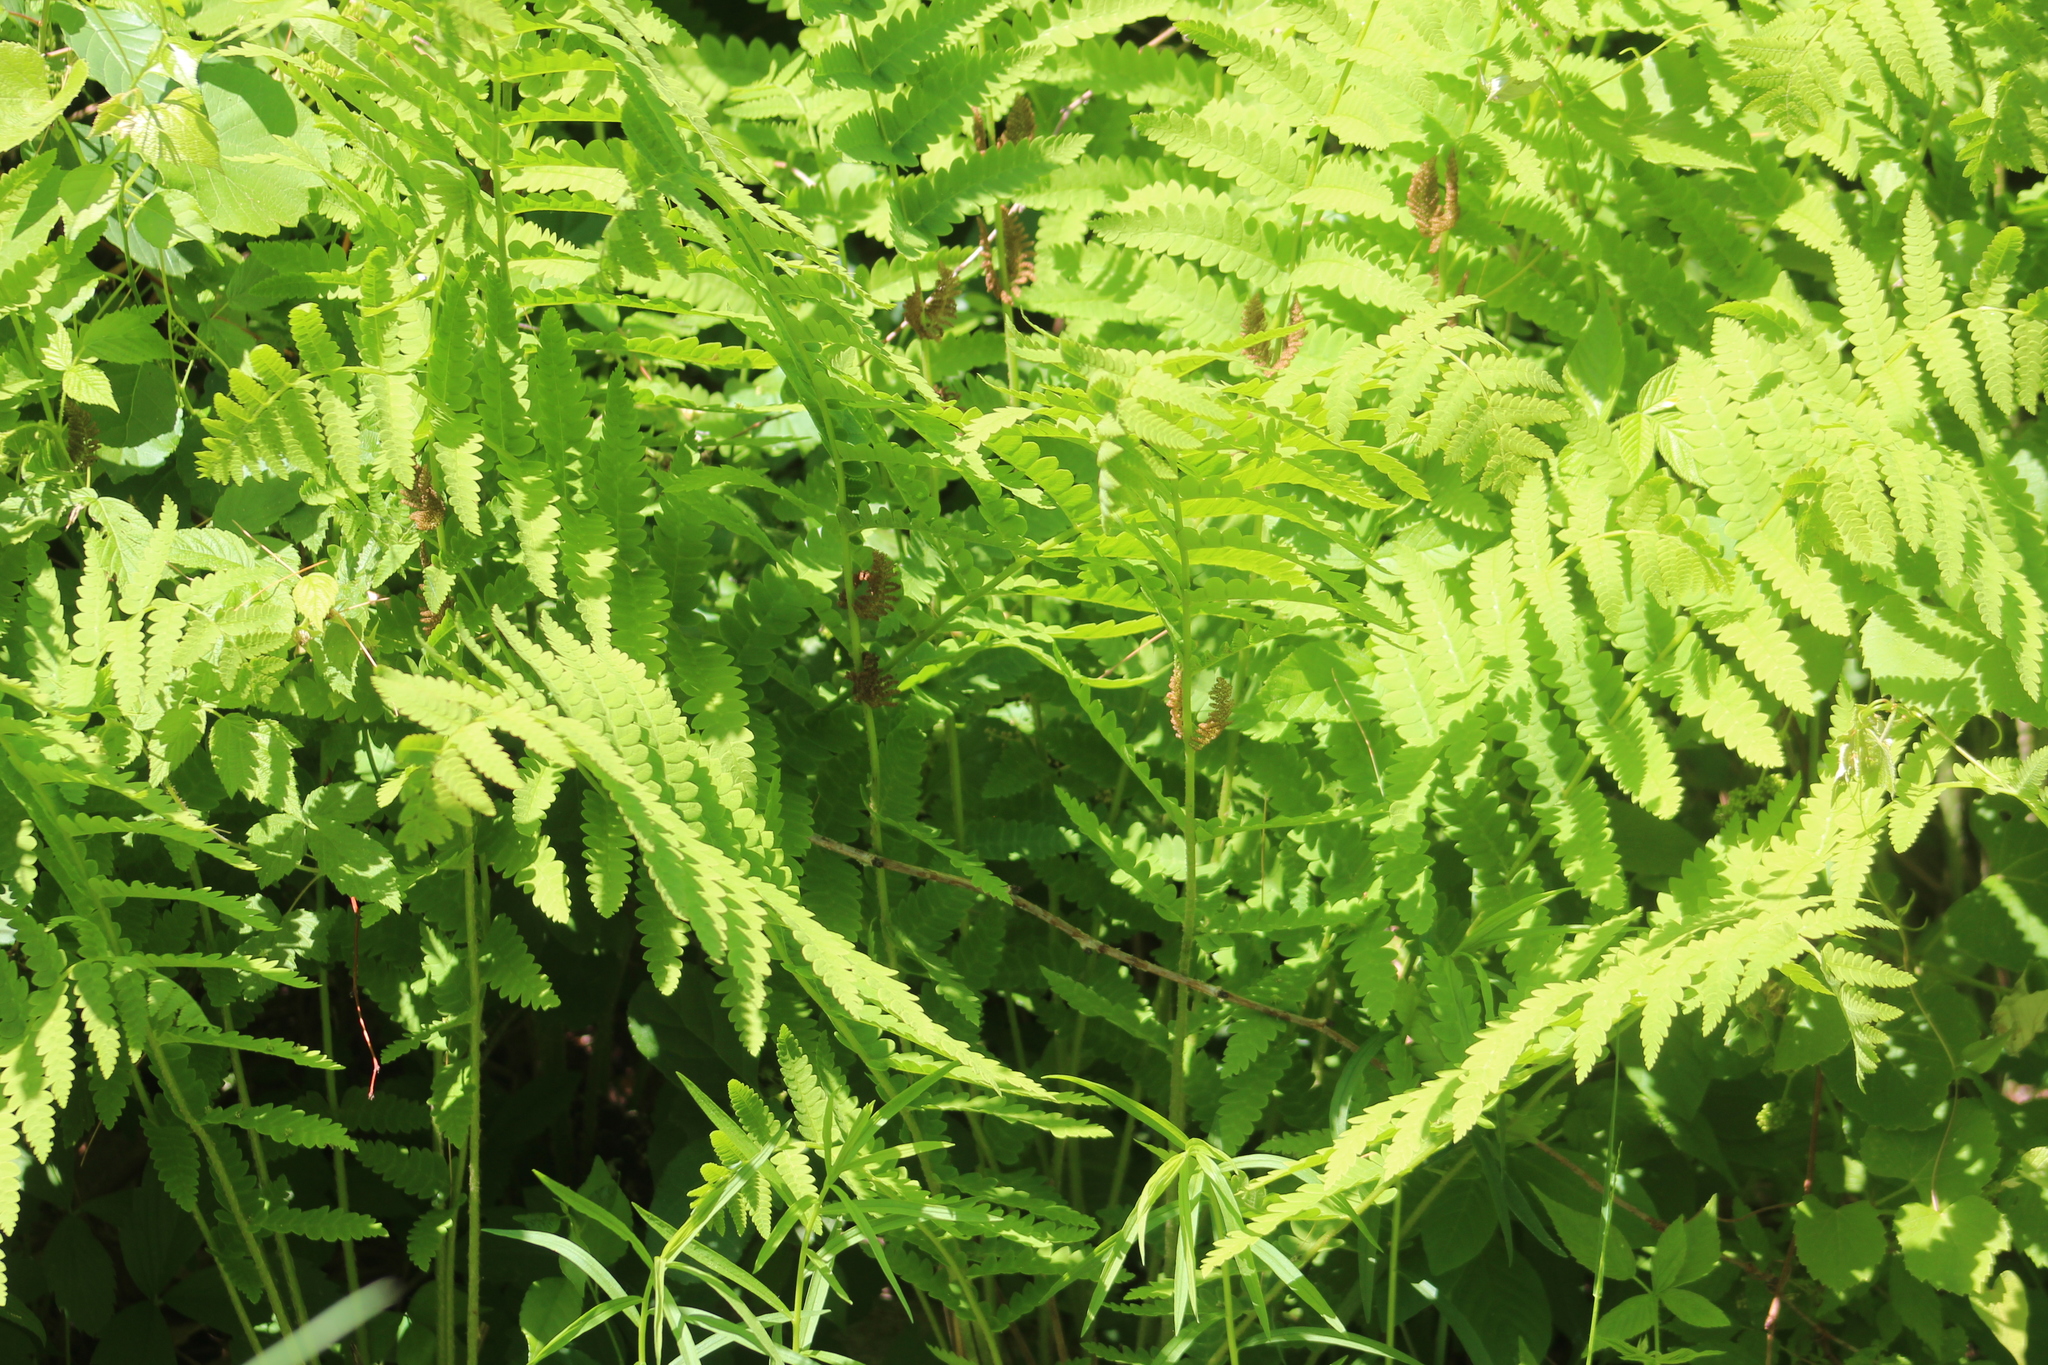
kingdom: Plantae
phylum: Tracheophyta
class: Polypodiopsida
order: Osmundales
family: Osmundaceae
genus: Claytosmunda
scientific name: Claytosmunda claytoniana
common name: Clayton's fern
